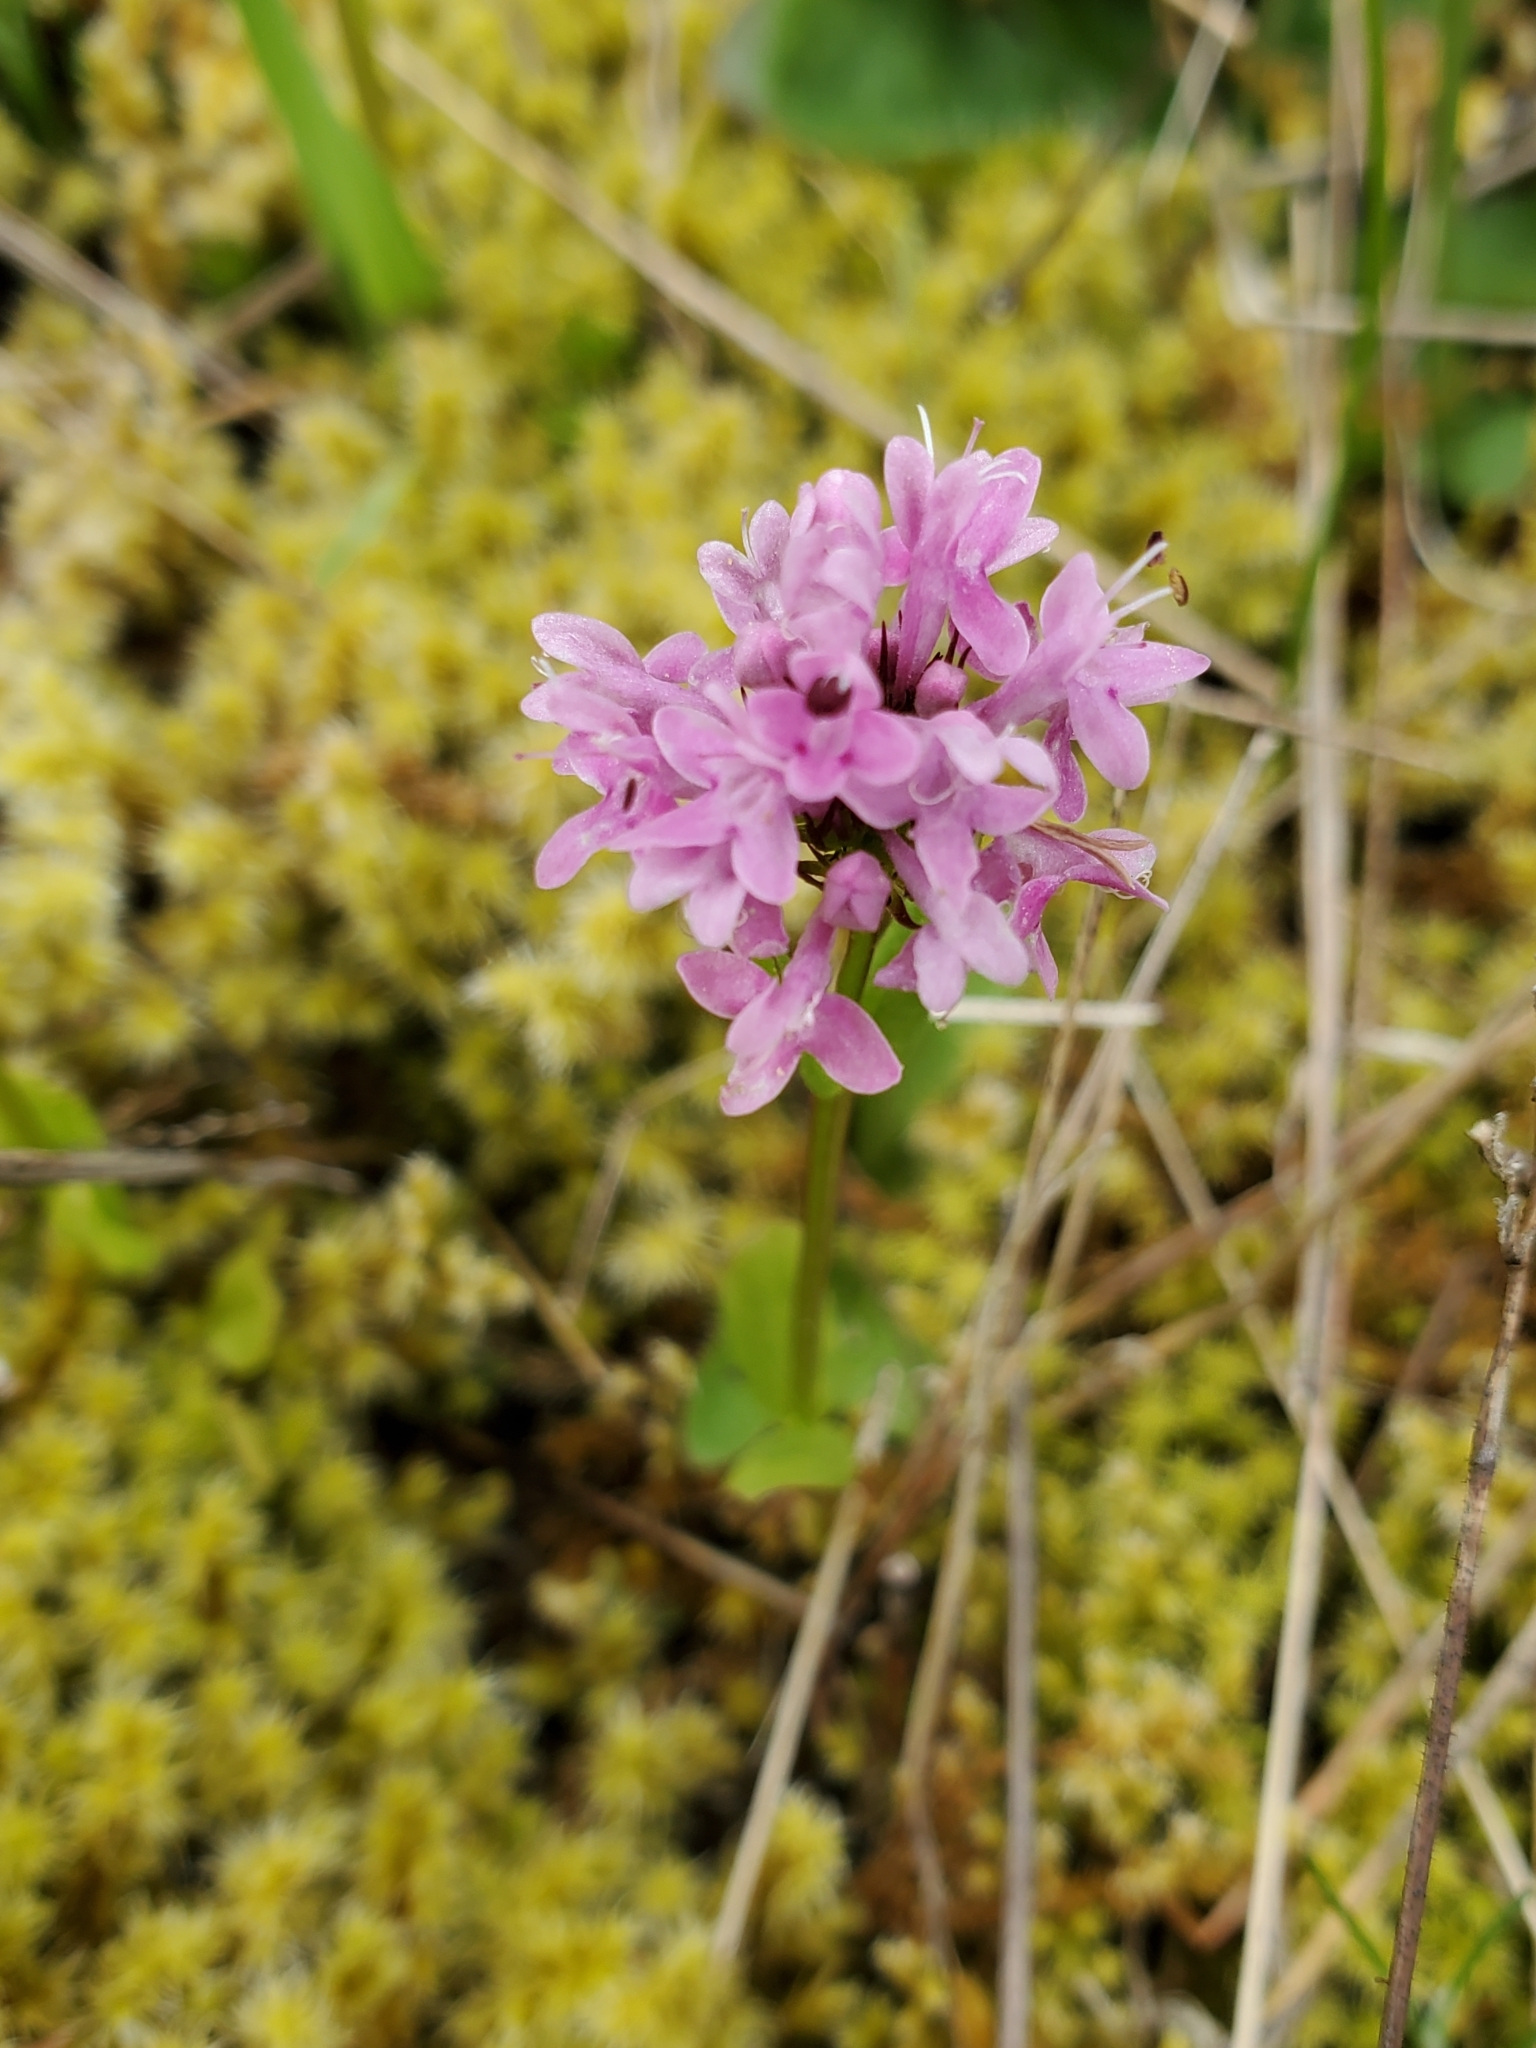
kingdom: Plantae
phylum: Tracheophyta
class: Magnoliopsida
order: Dipsacales
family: Caprifoliaceae
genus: Plectritis
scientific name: Plectritis congesta
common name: Pink plectritis
